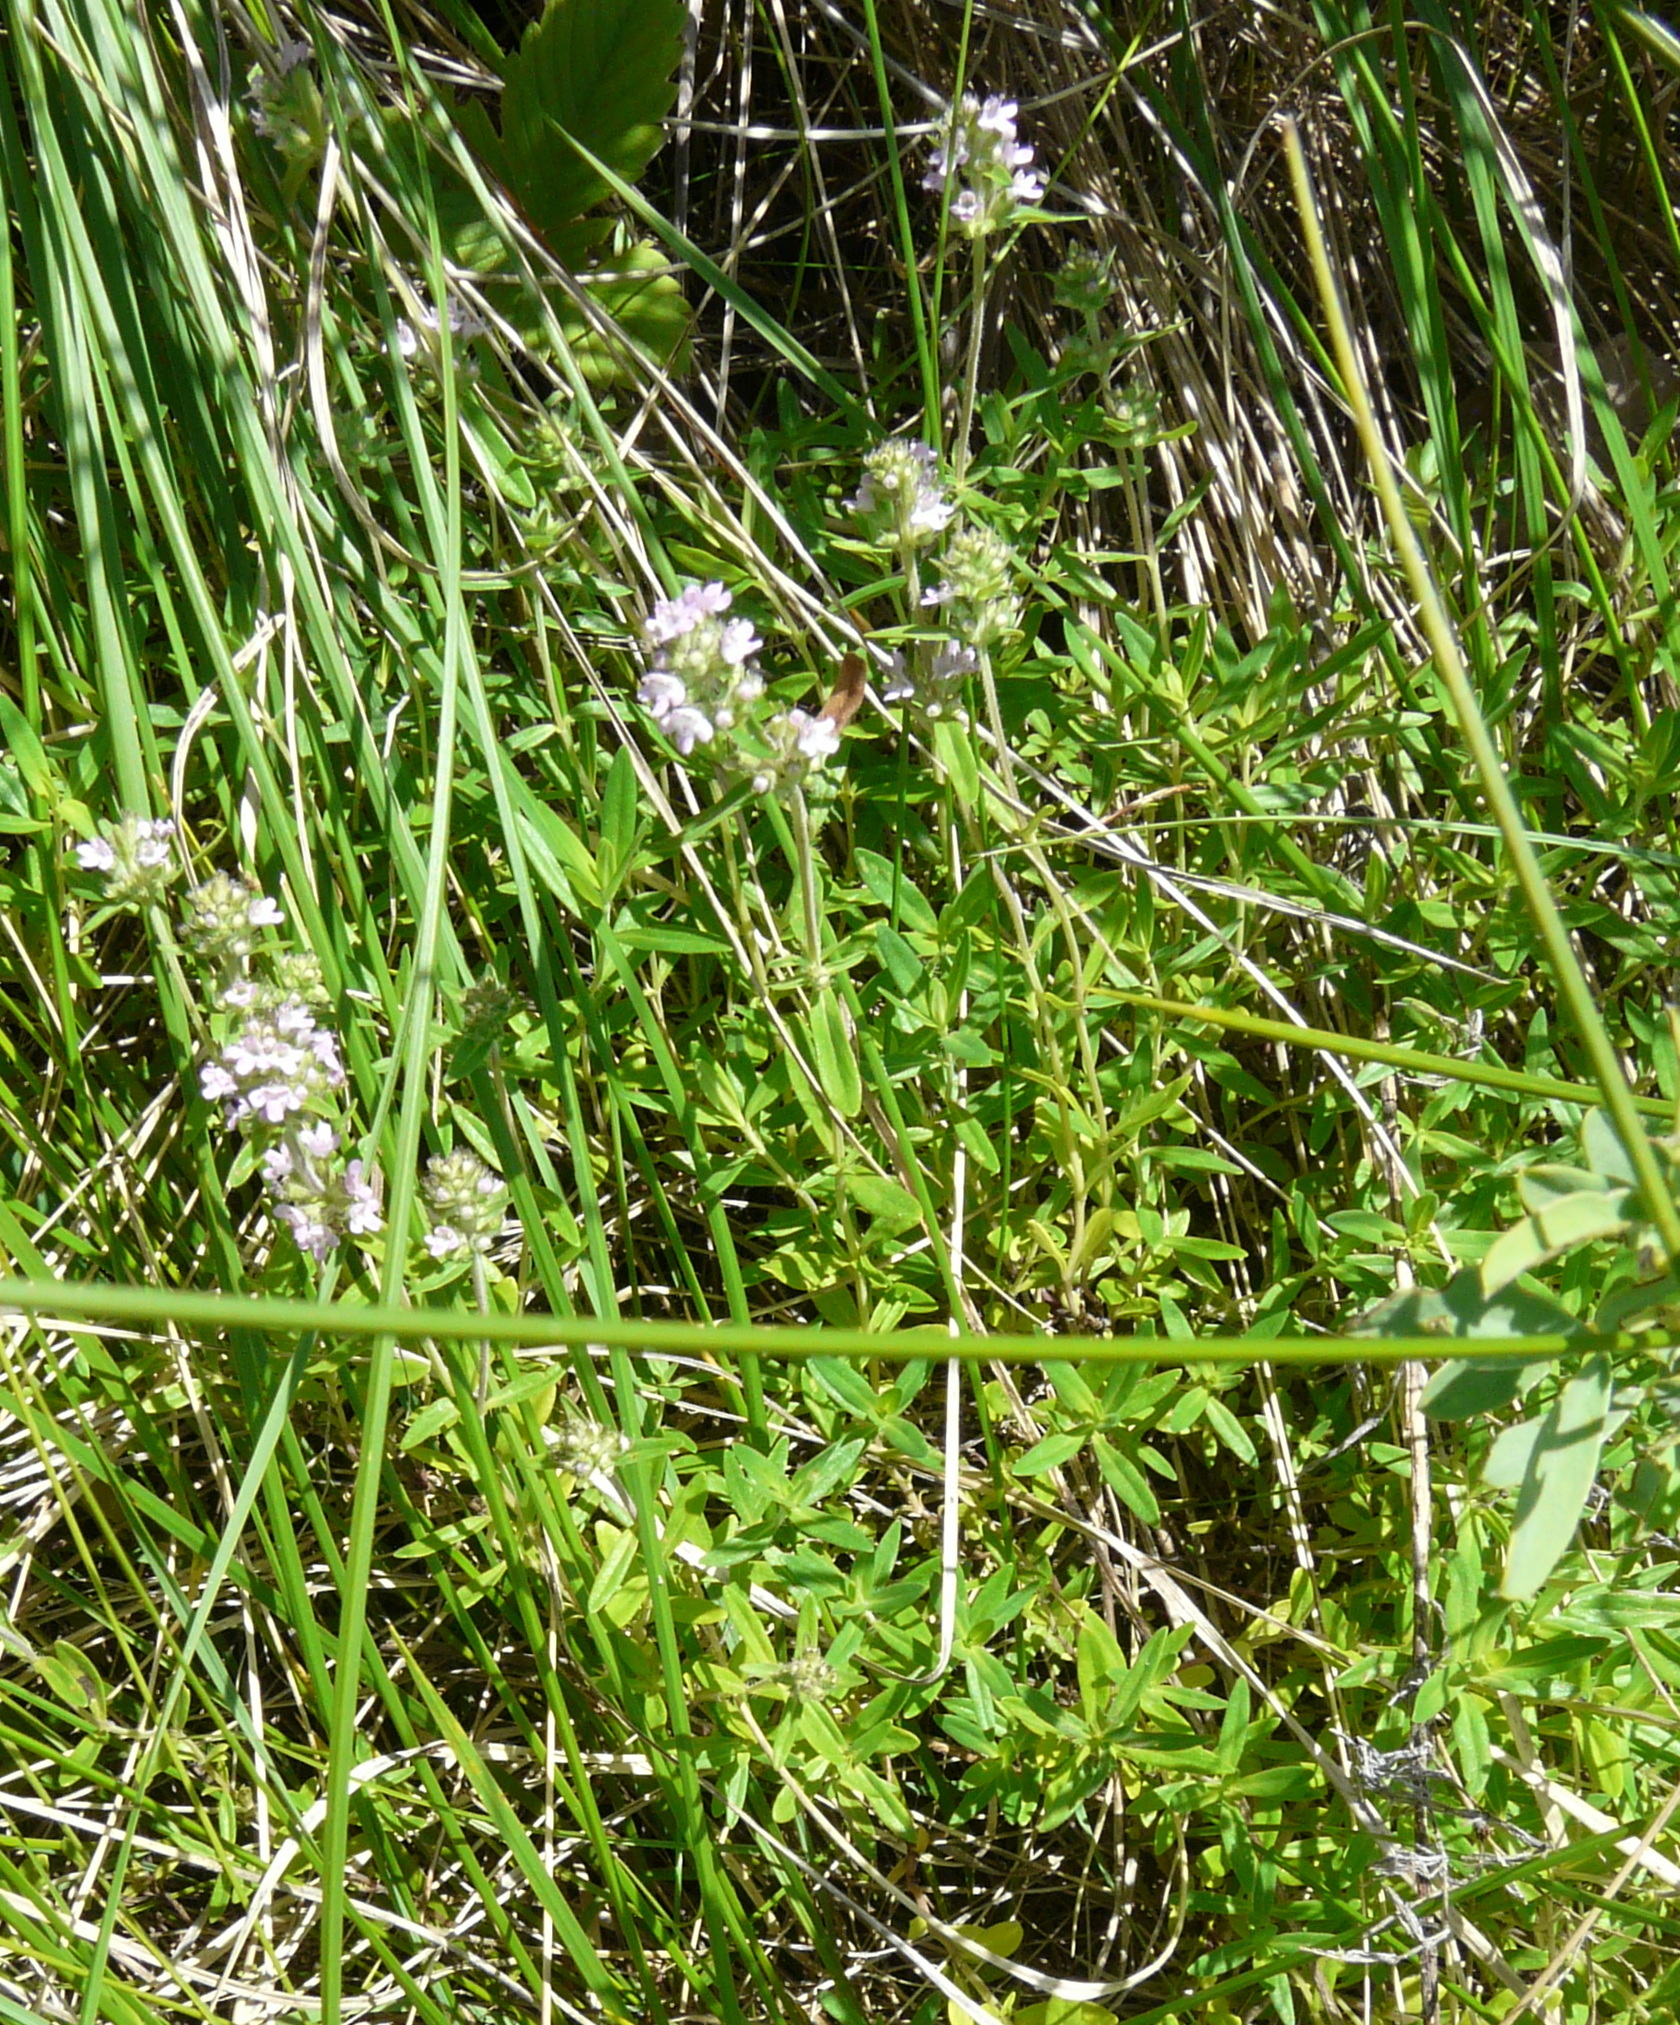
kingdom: Plantae
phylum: Tracheophyta
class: Magnoliopsida
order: Lamiales
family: Lamiaceae
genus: Thymus
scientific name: Thymus pannonicus
